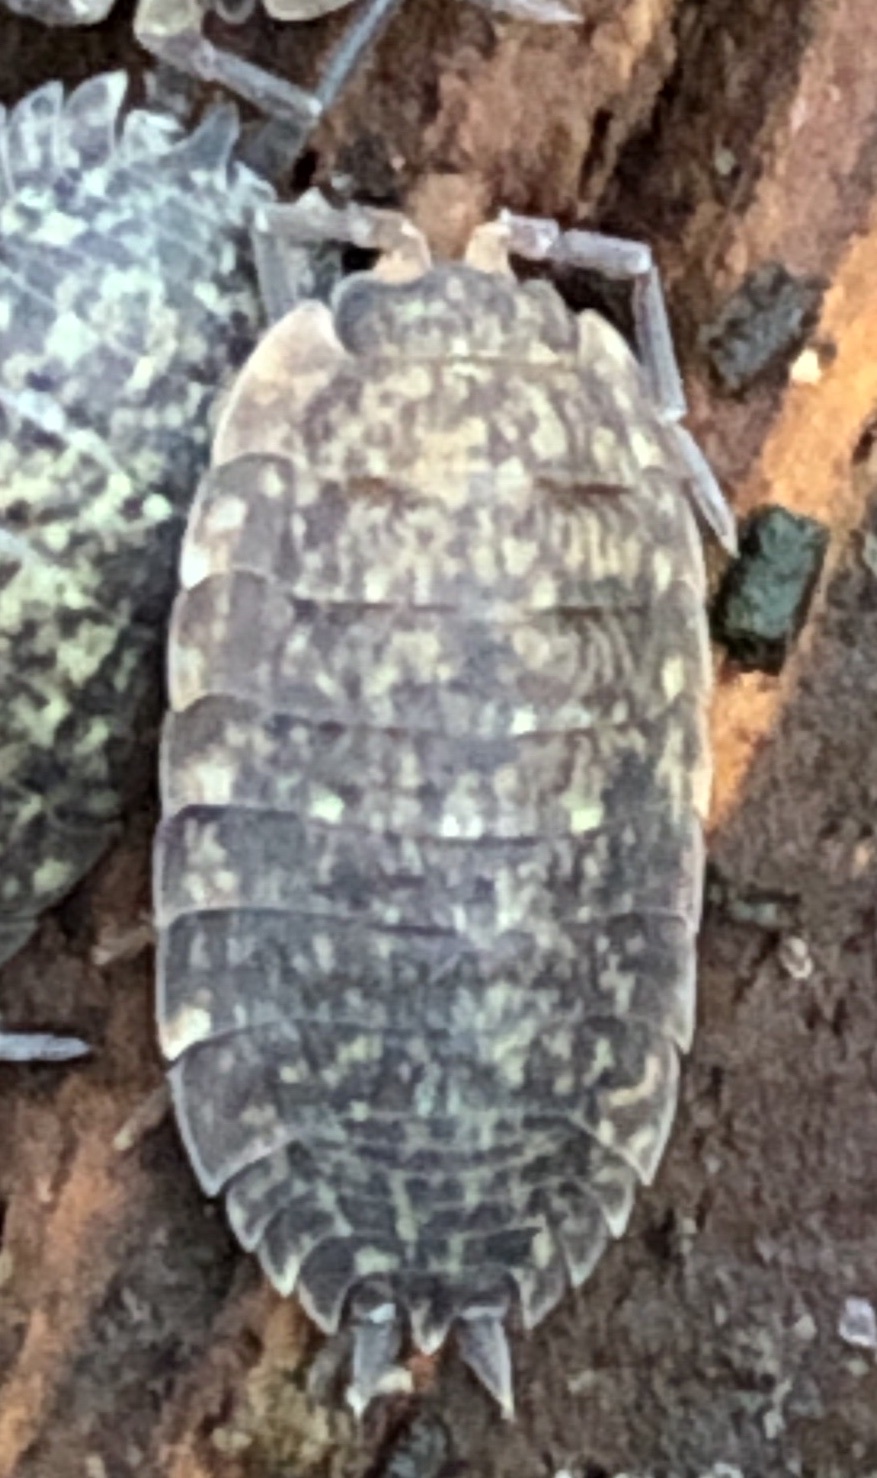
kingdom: Animalia
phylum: Arthropoda
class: Malacostraca
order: Isopoda
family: Porcellionidae
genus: Porcellio
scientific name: Porcellio scaber
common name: Common rough woodlouse
